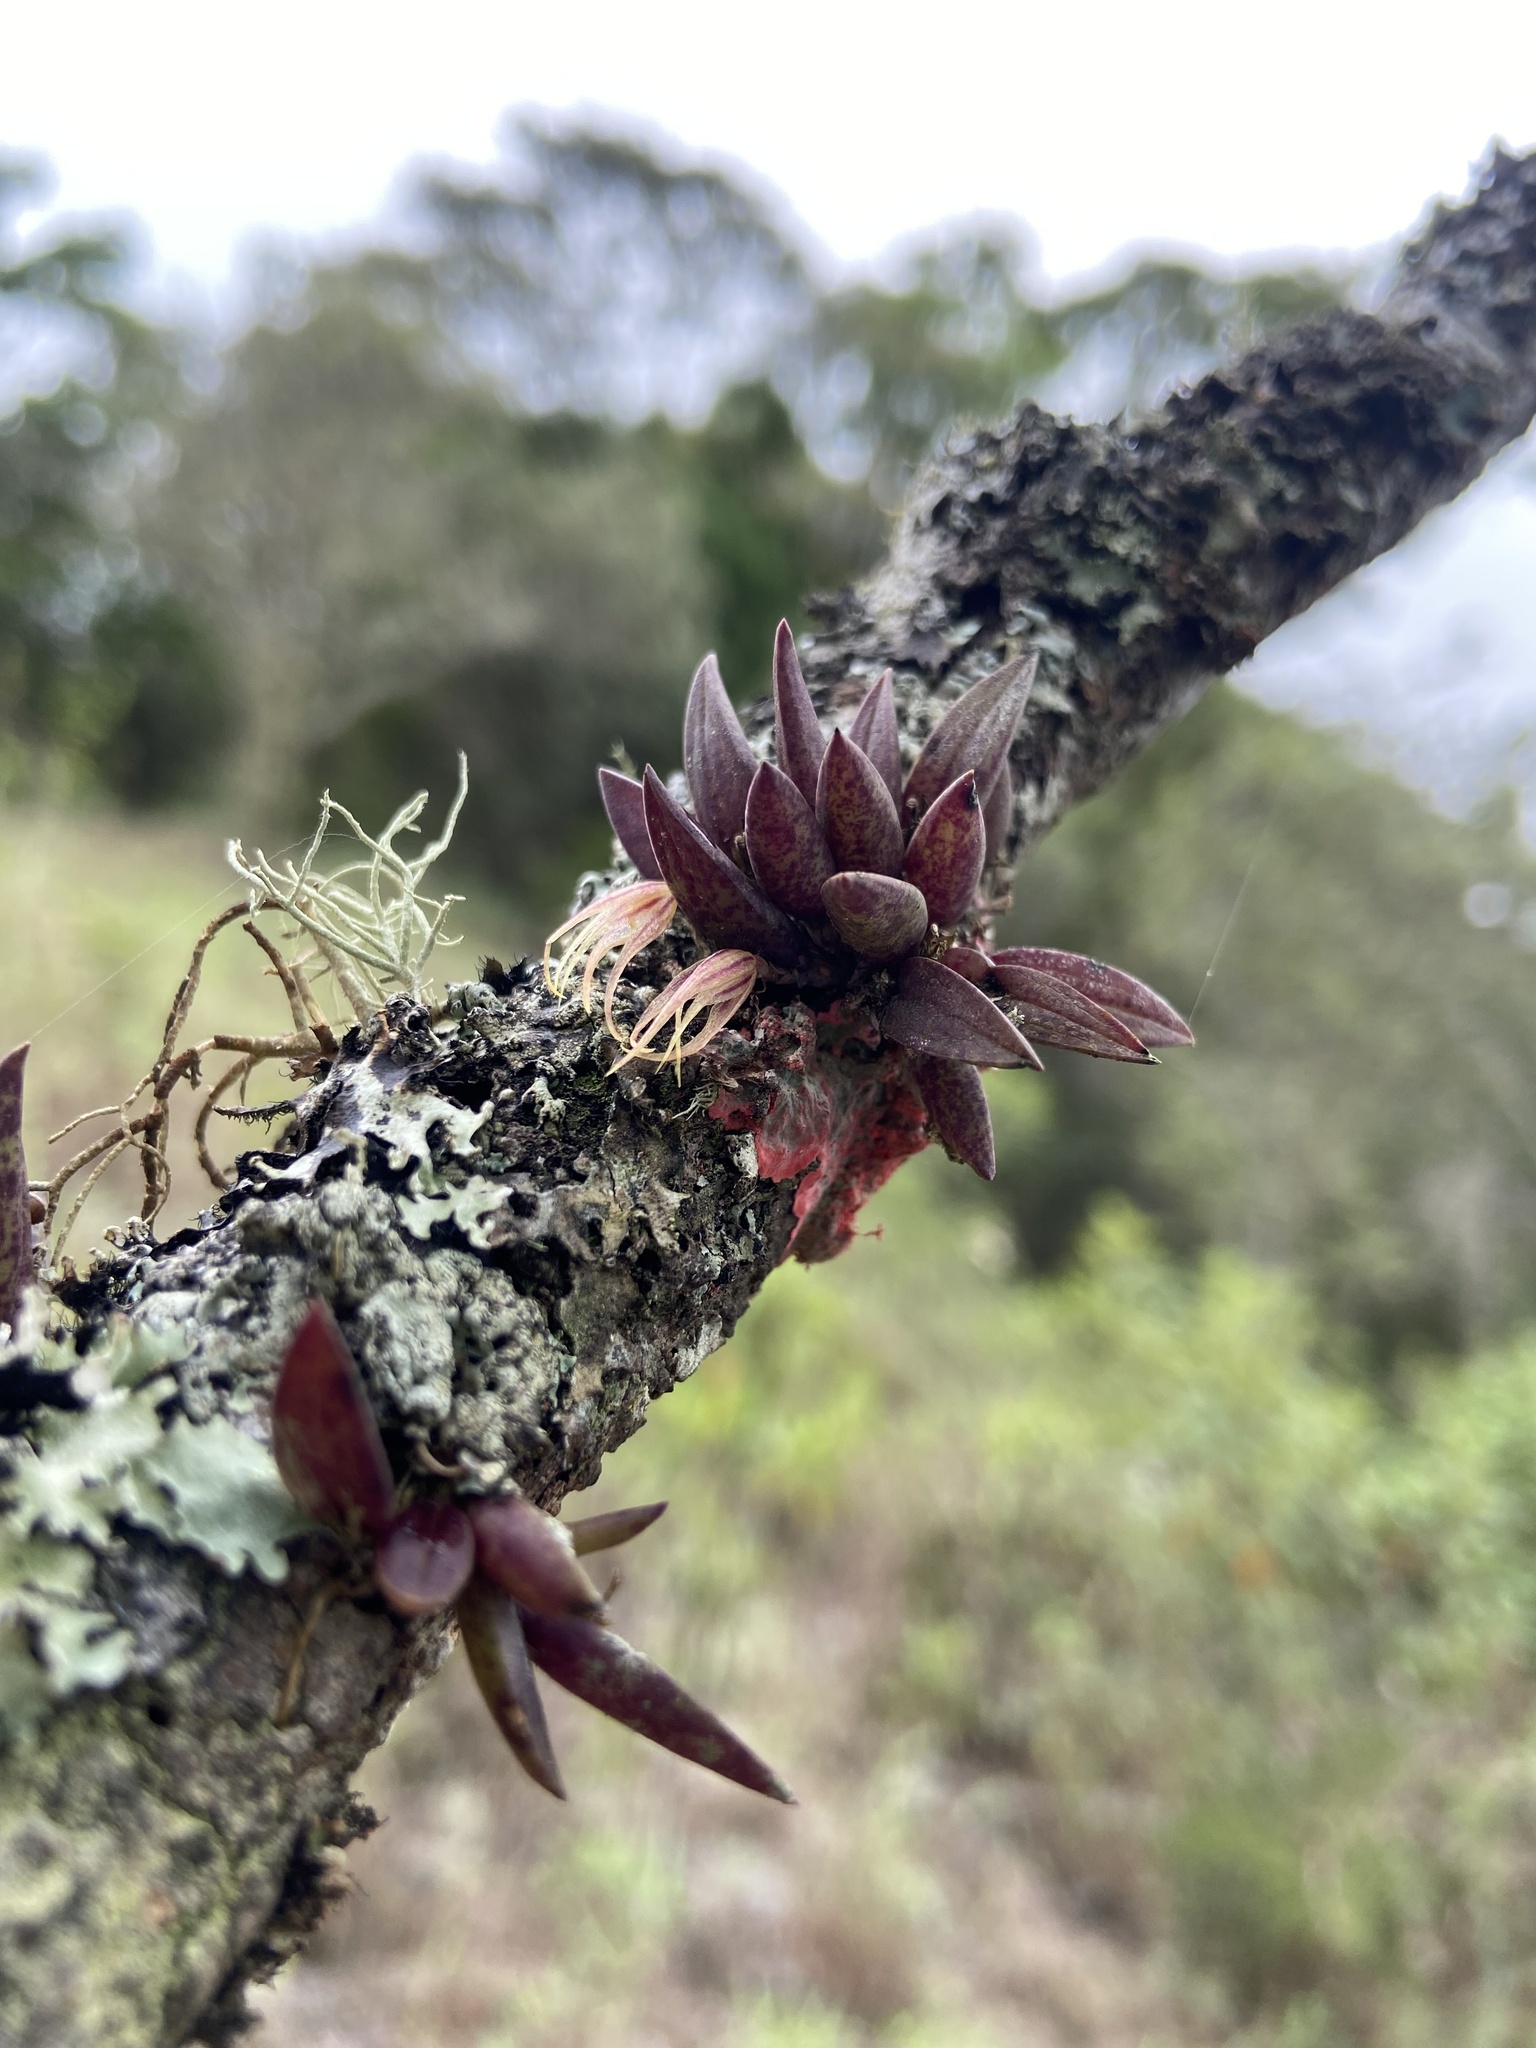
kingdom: Plantae
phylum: Tracheophyta
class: Liliopsida
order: Asparagales
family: Orchidaceae
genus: Octomeria
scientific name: Octomeria aloefolia
